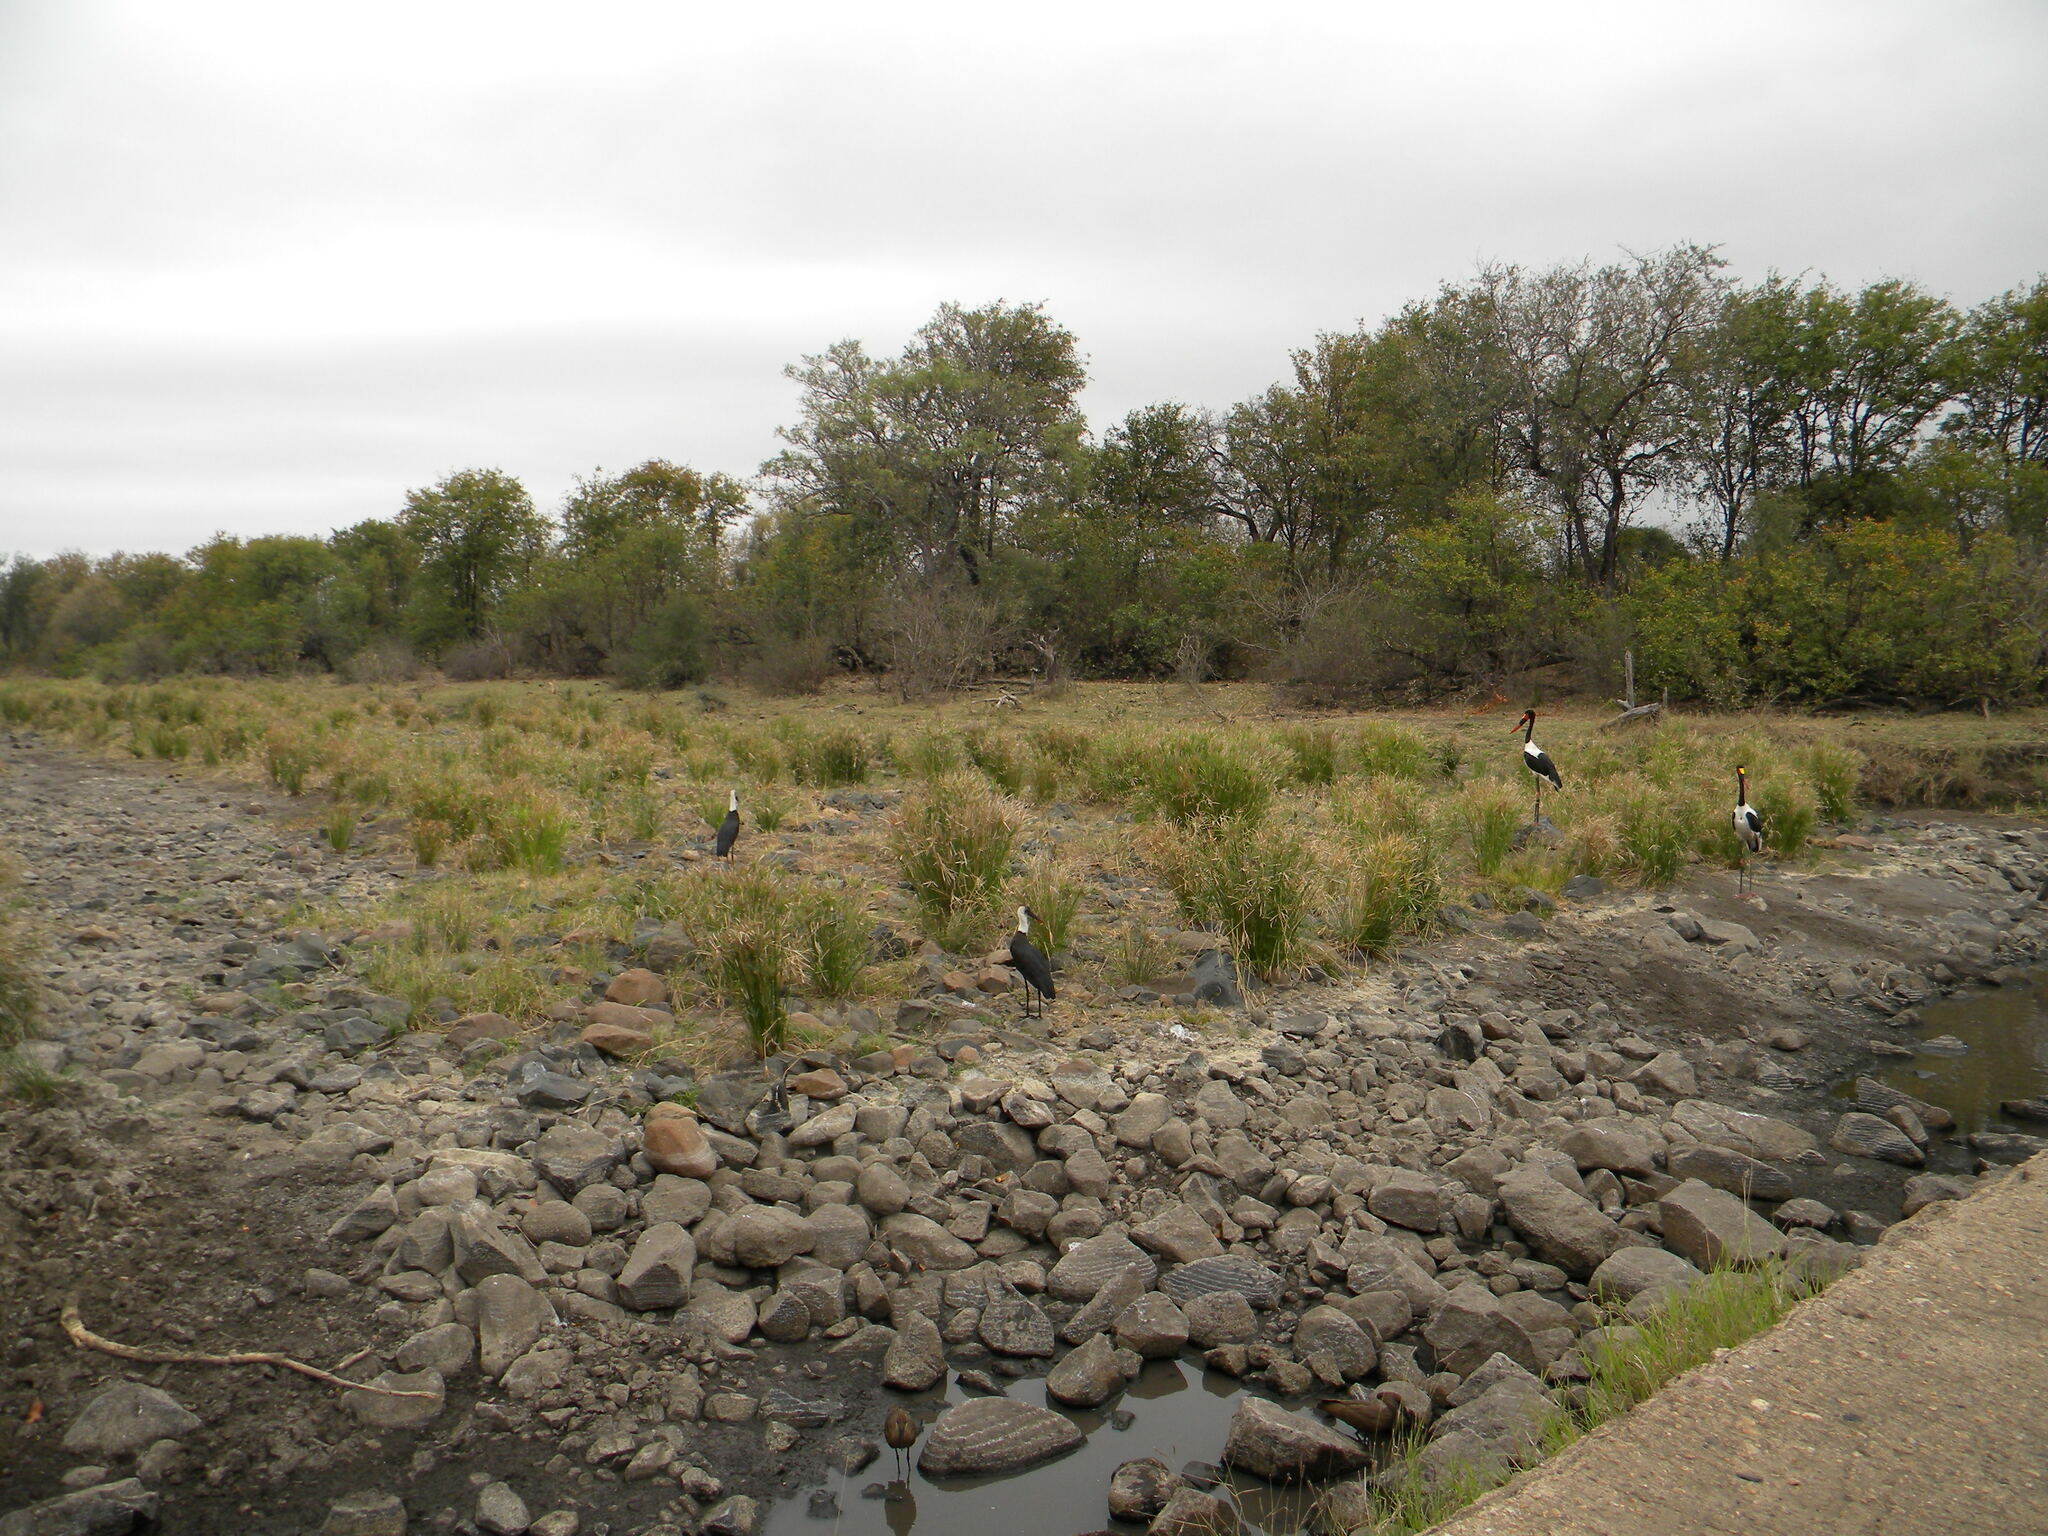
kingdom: Animalia
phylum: Chordata
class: Aves
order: Ciconiiformes
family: Ciconiidae
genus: Ciconia
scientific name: Ciconia microscelis
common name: African woollyneck
